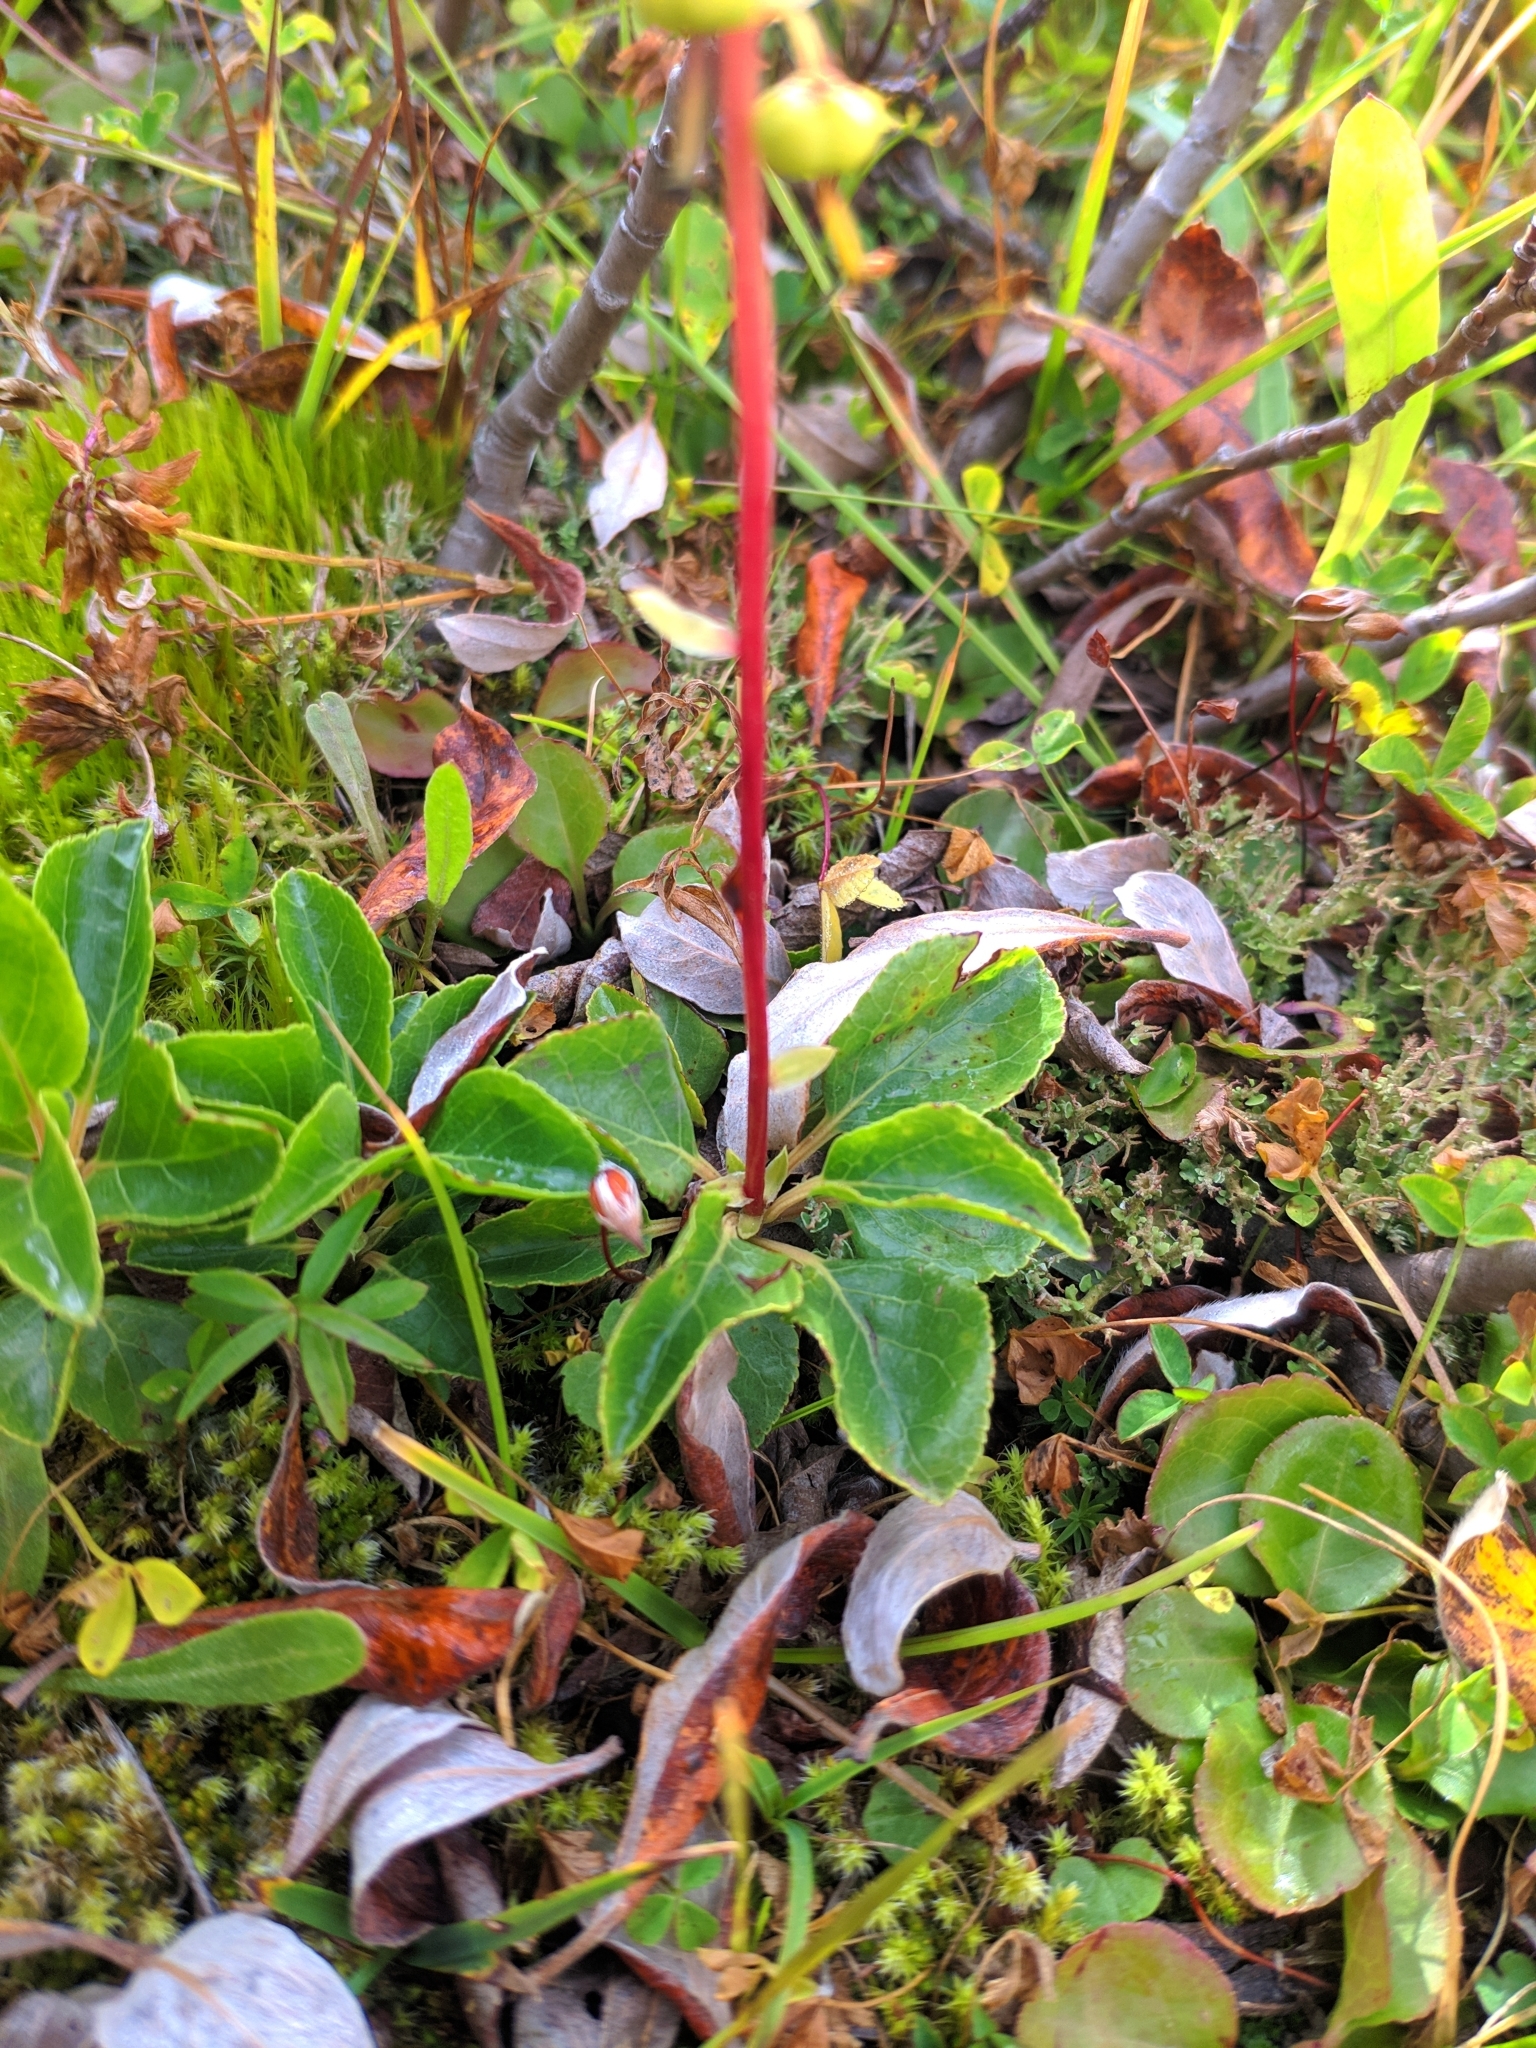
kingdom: Plantae
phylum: Tracheophyta
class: Magnoliopsida
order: Ericales
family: Ericaceae
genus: Orthilia
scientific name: Orthilia secunda
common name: One-sided orthilia
